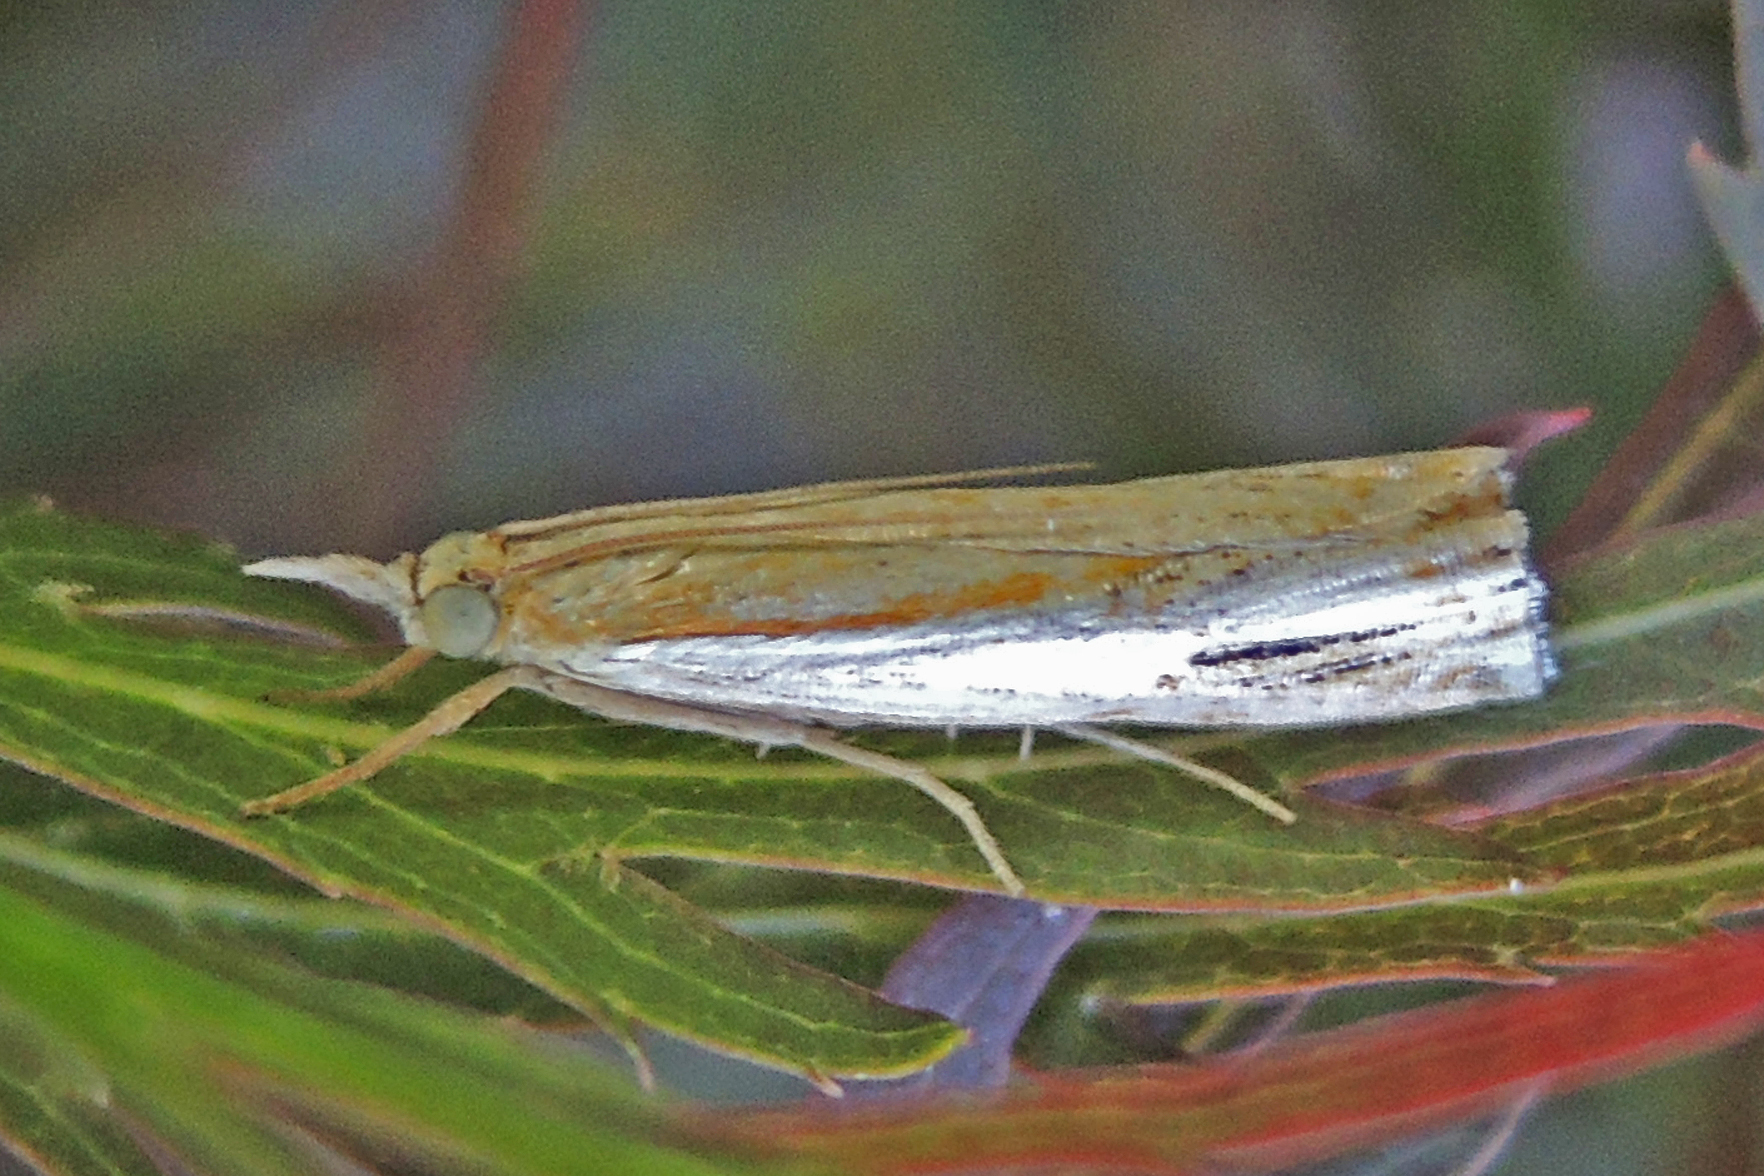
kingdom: Animalia
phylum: Arthropoda
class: Insecta
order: Lepidoptera
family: Crambidae
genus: Crambus
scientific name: Crambus agitatellus
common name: Double-banded grass-veneer
